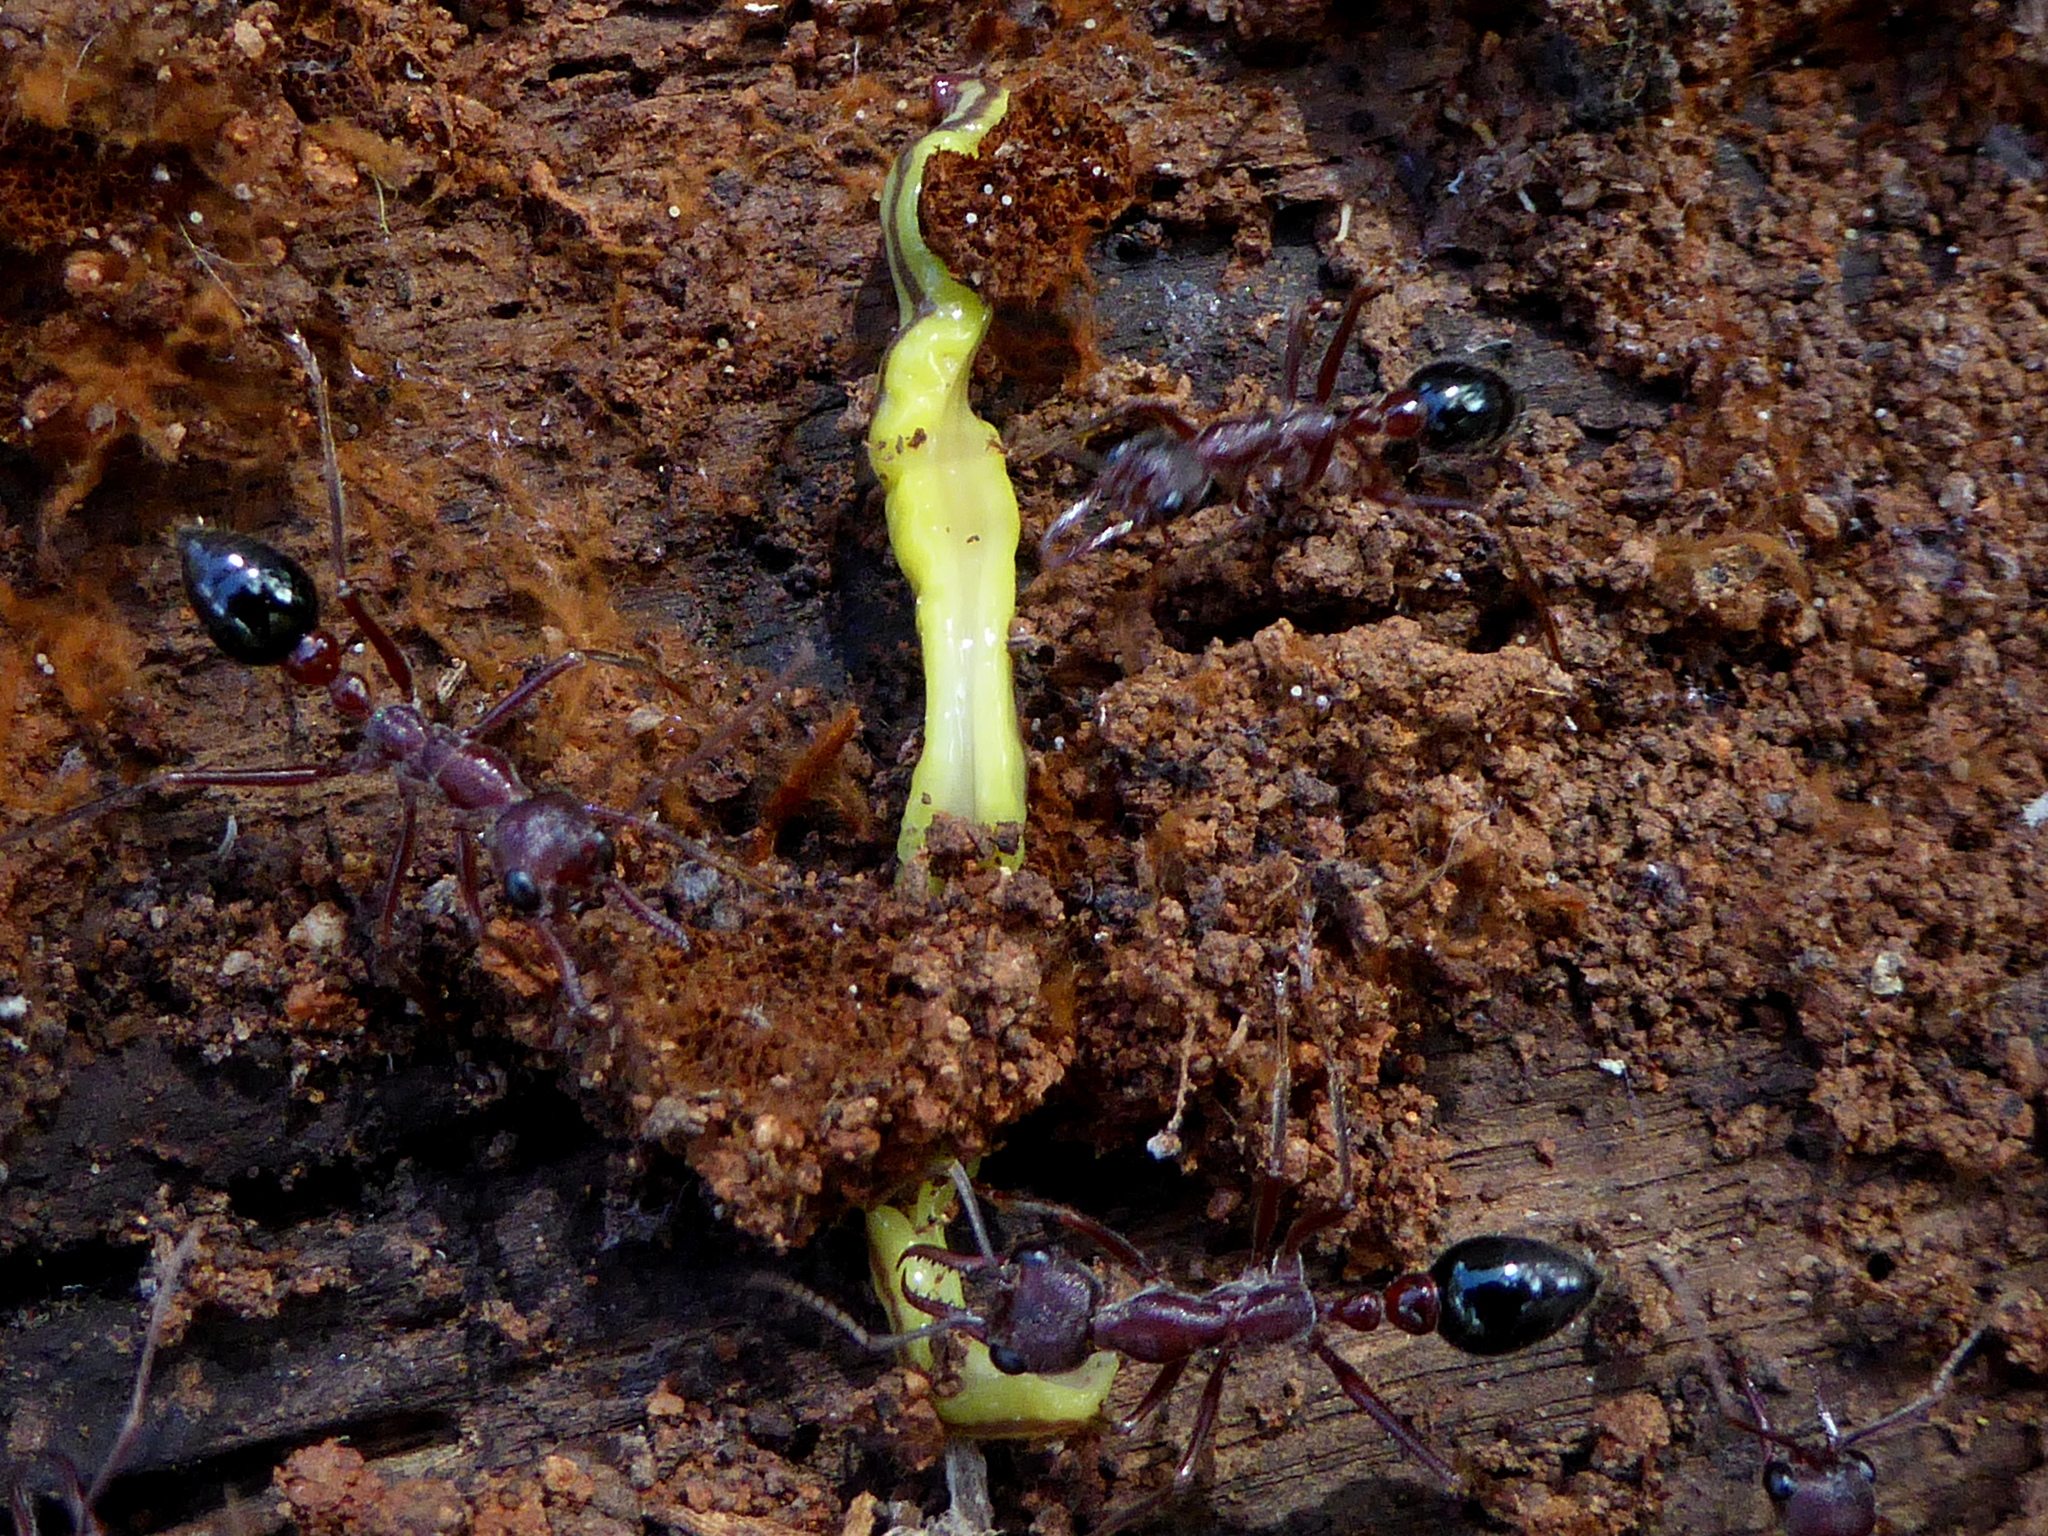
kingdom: Animalia
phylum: Arthropoda
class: Insecta
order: Hymenoptera
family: Formicidae
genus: Myrmecia
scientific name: Myrmecia forficata
